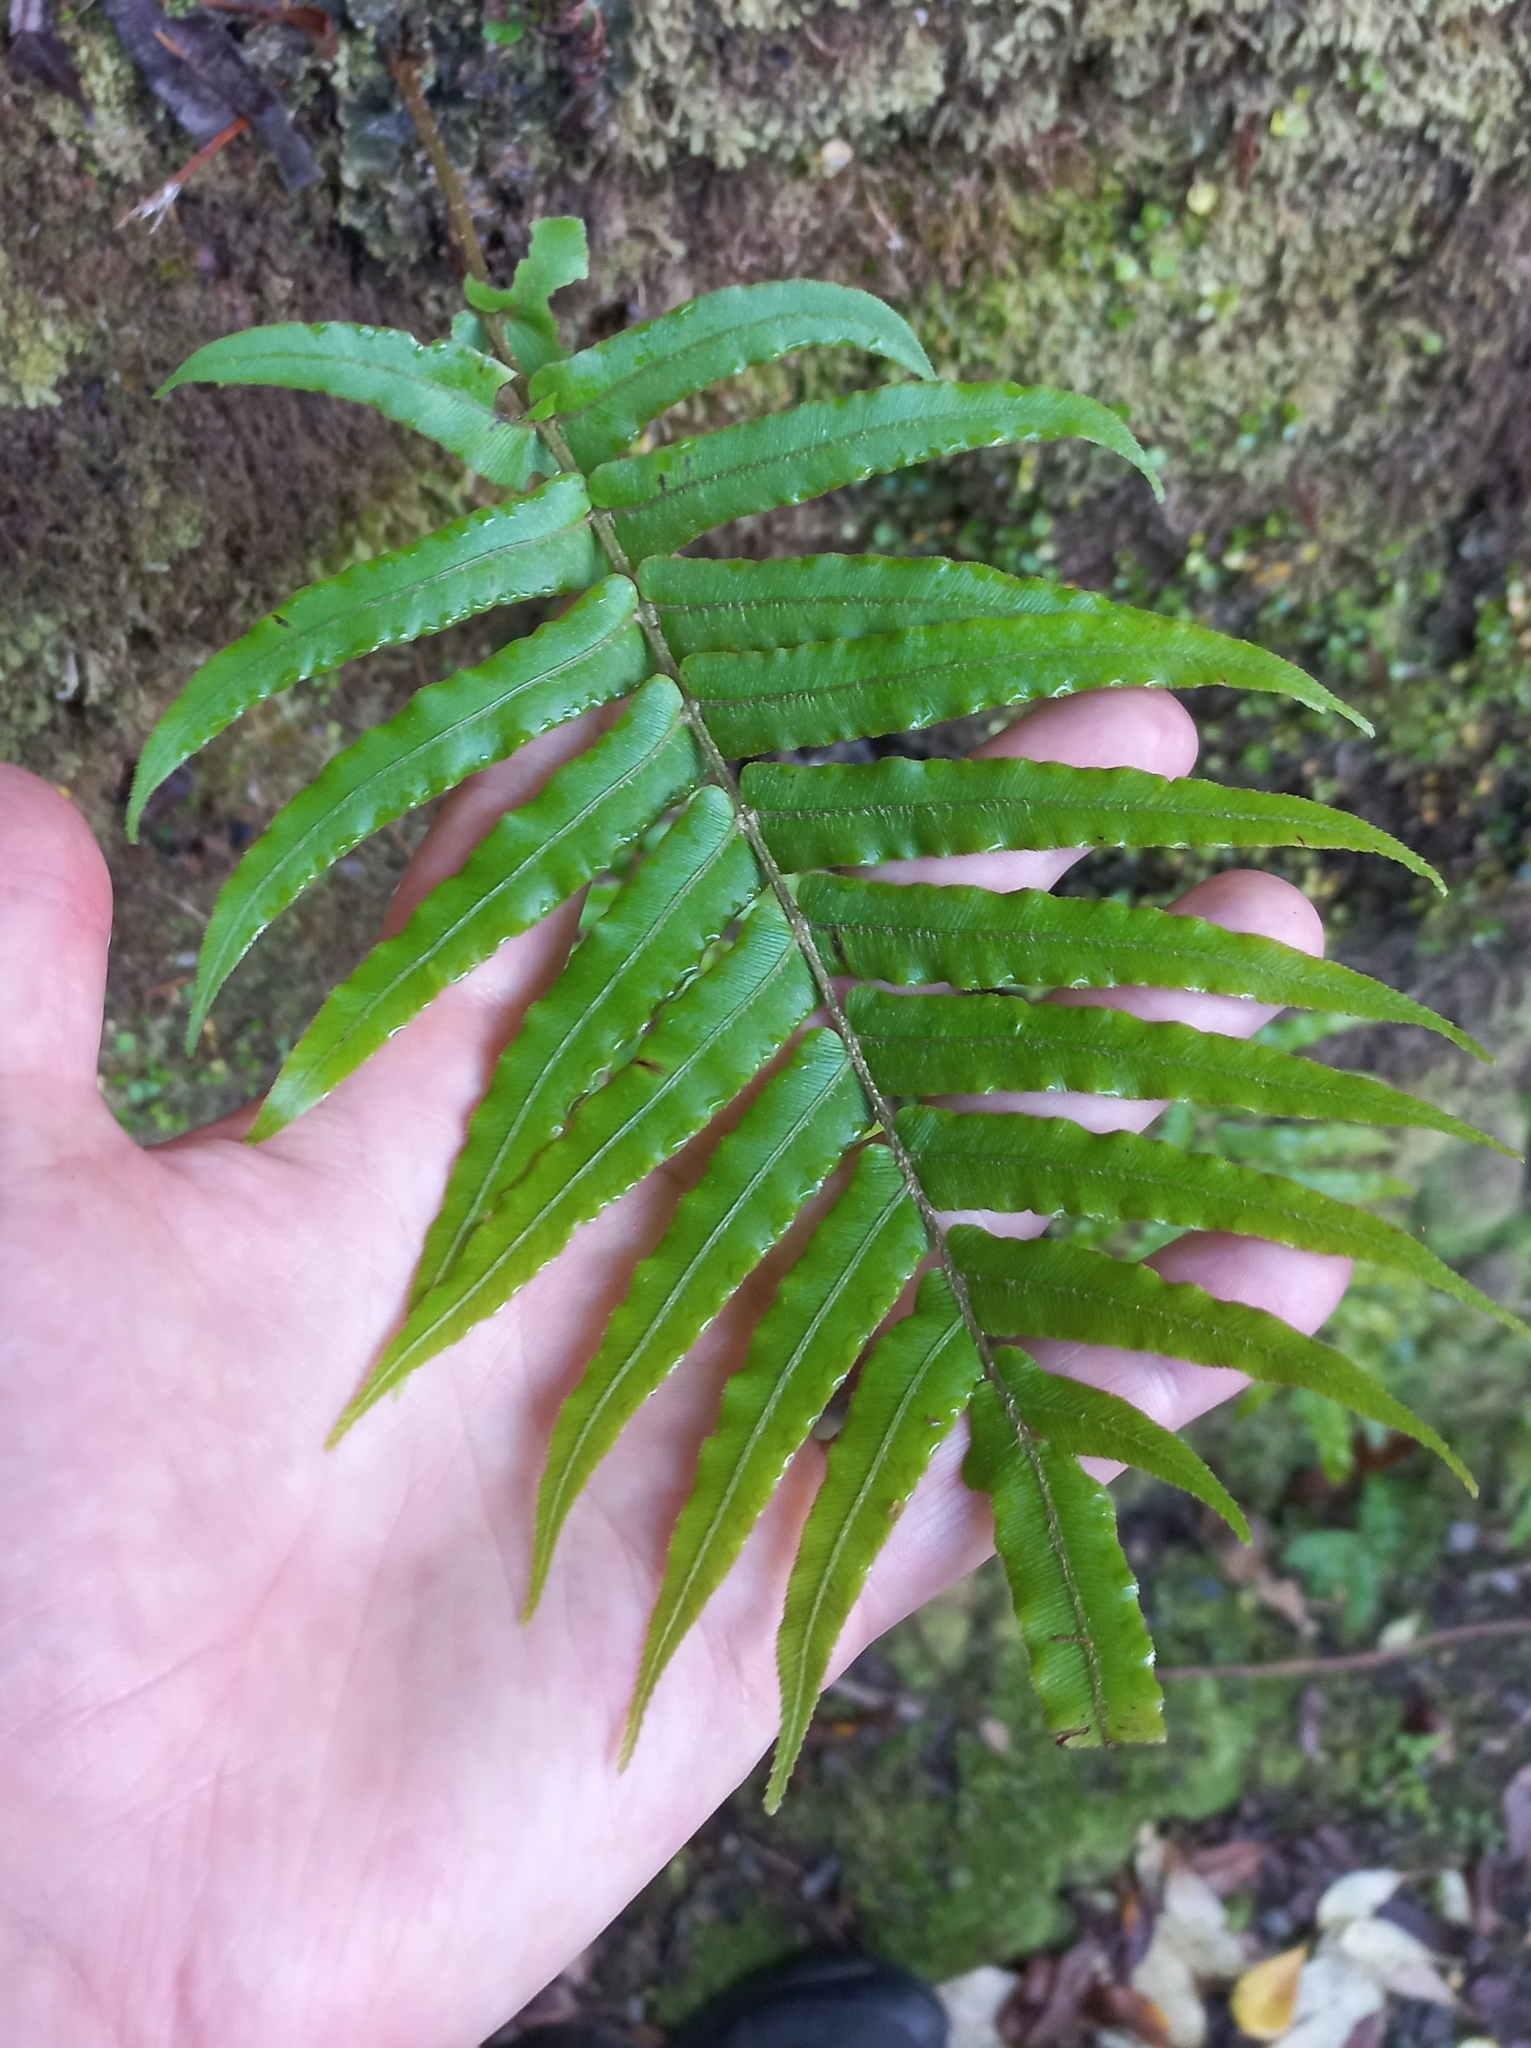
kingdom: Plantae
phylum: Tracheophyta
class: Polypodiopsida
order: Polypodiales
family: Blechnaceae
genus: Parablechnum
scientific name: Parablechnum novae-zelandiae
